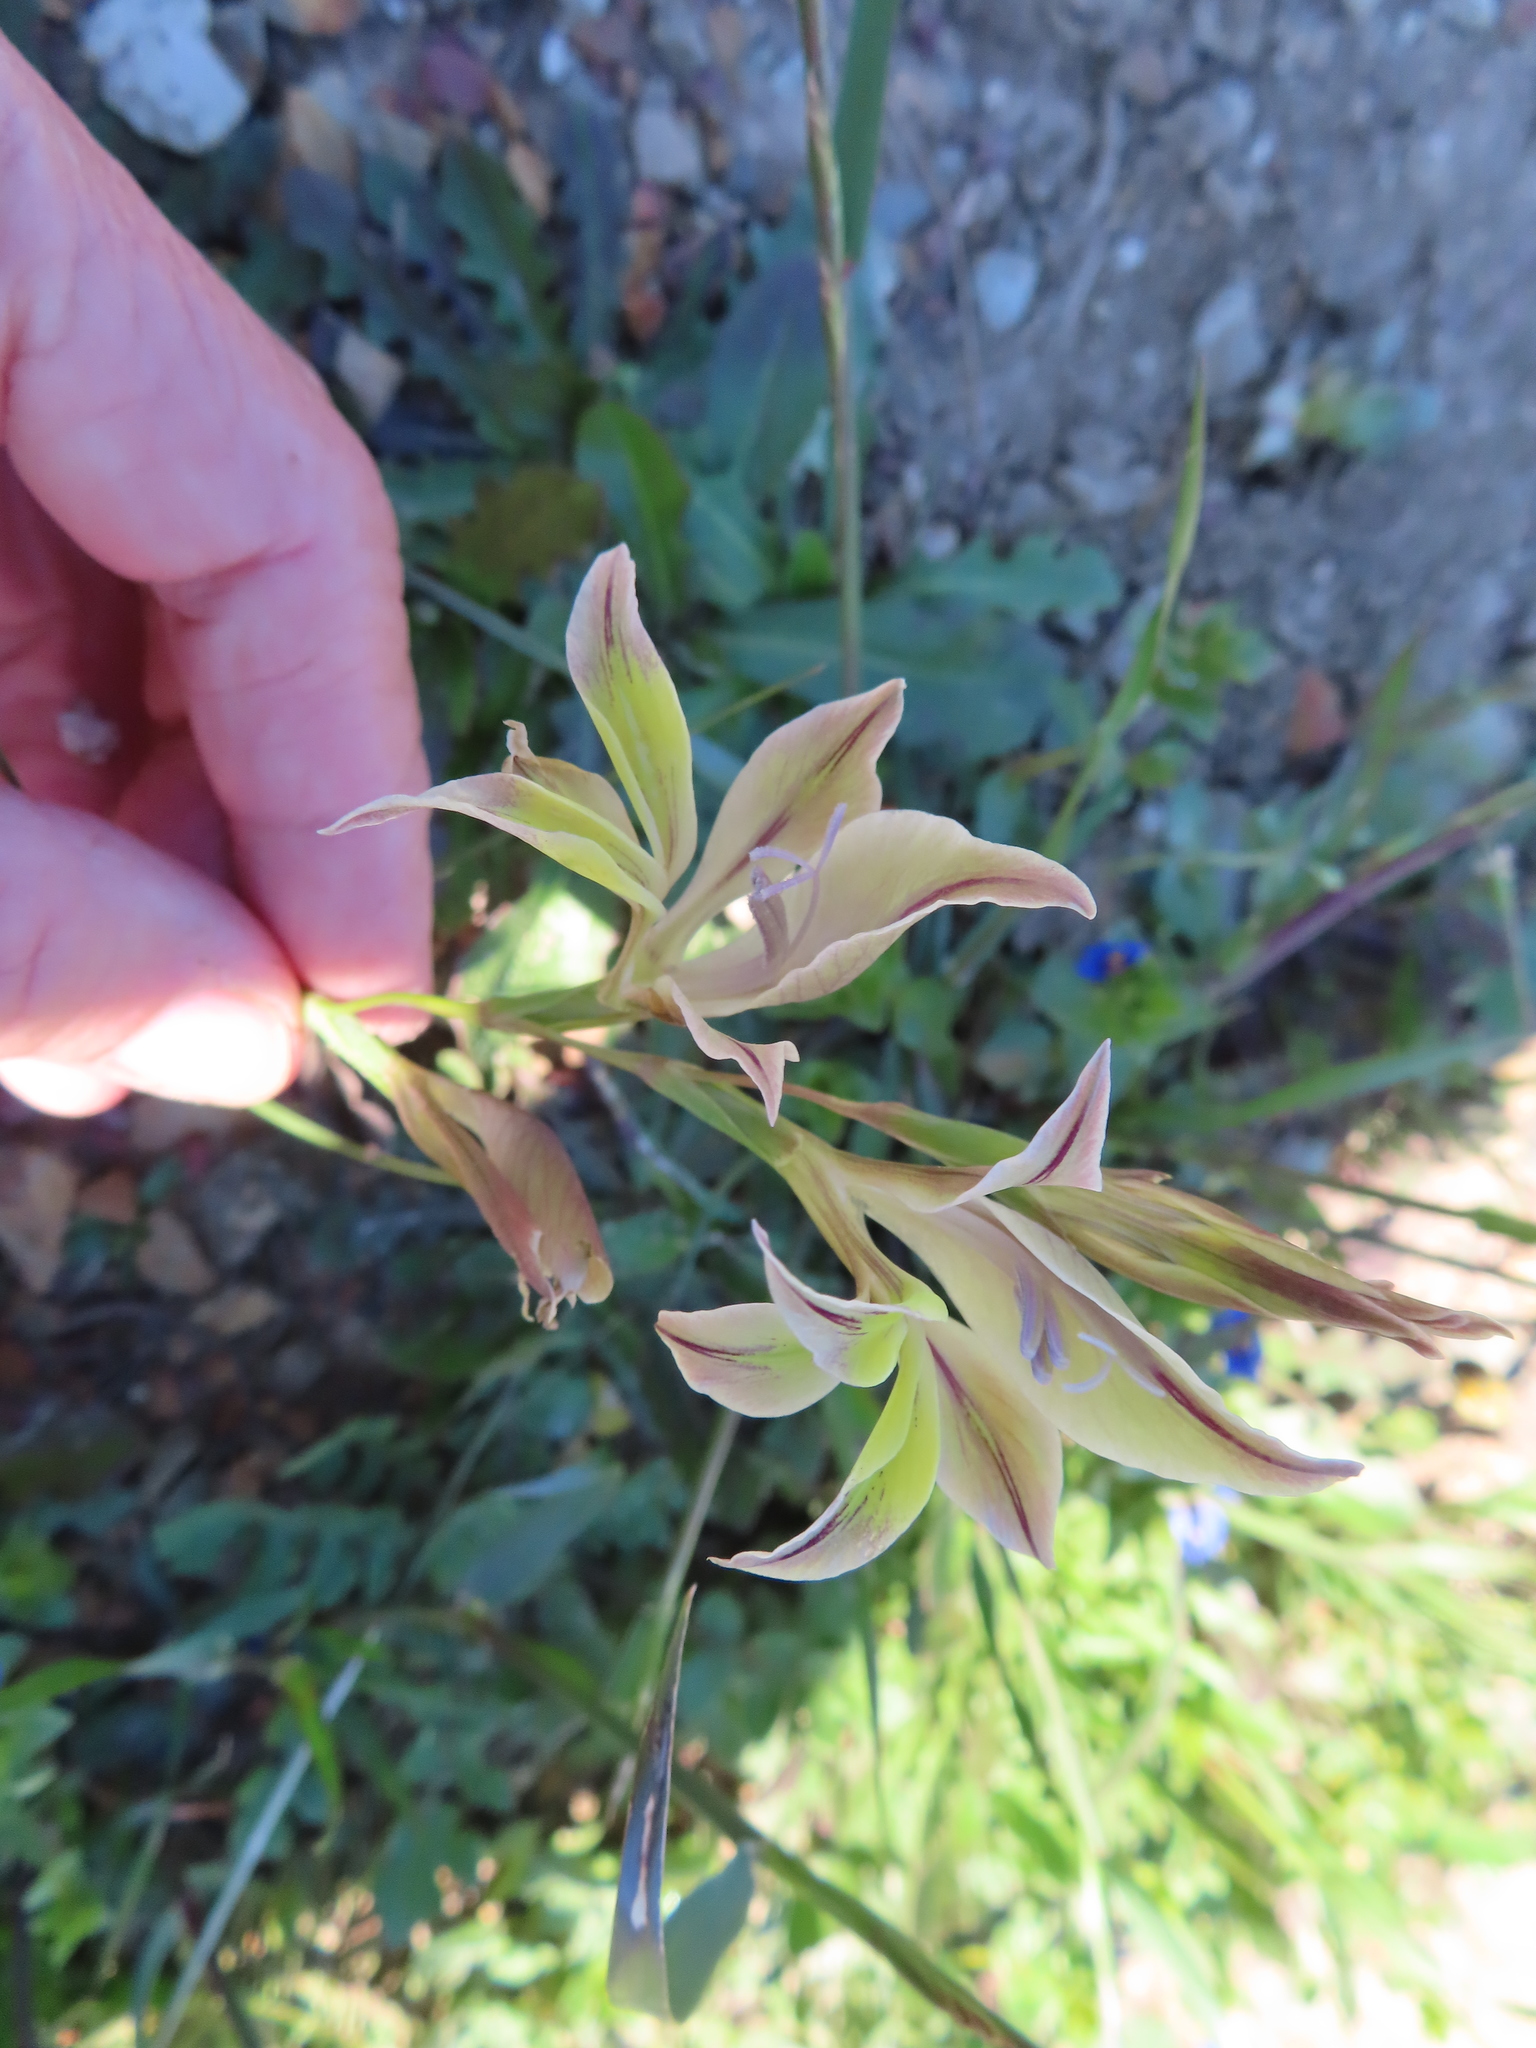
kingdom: Plantae
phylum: Tracheophyta
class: Liliopsida
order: Asparagales
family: Iridaceae
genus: Gladiolus
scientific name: Gladiolus permeabilis
